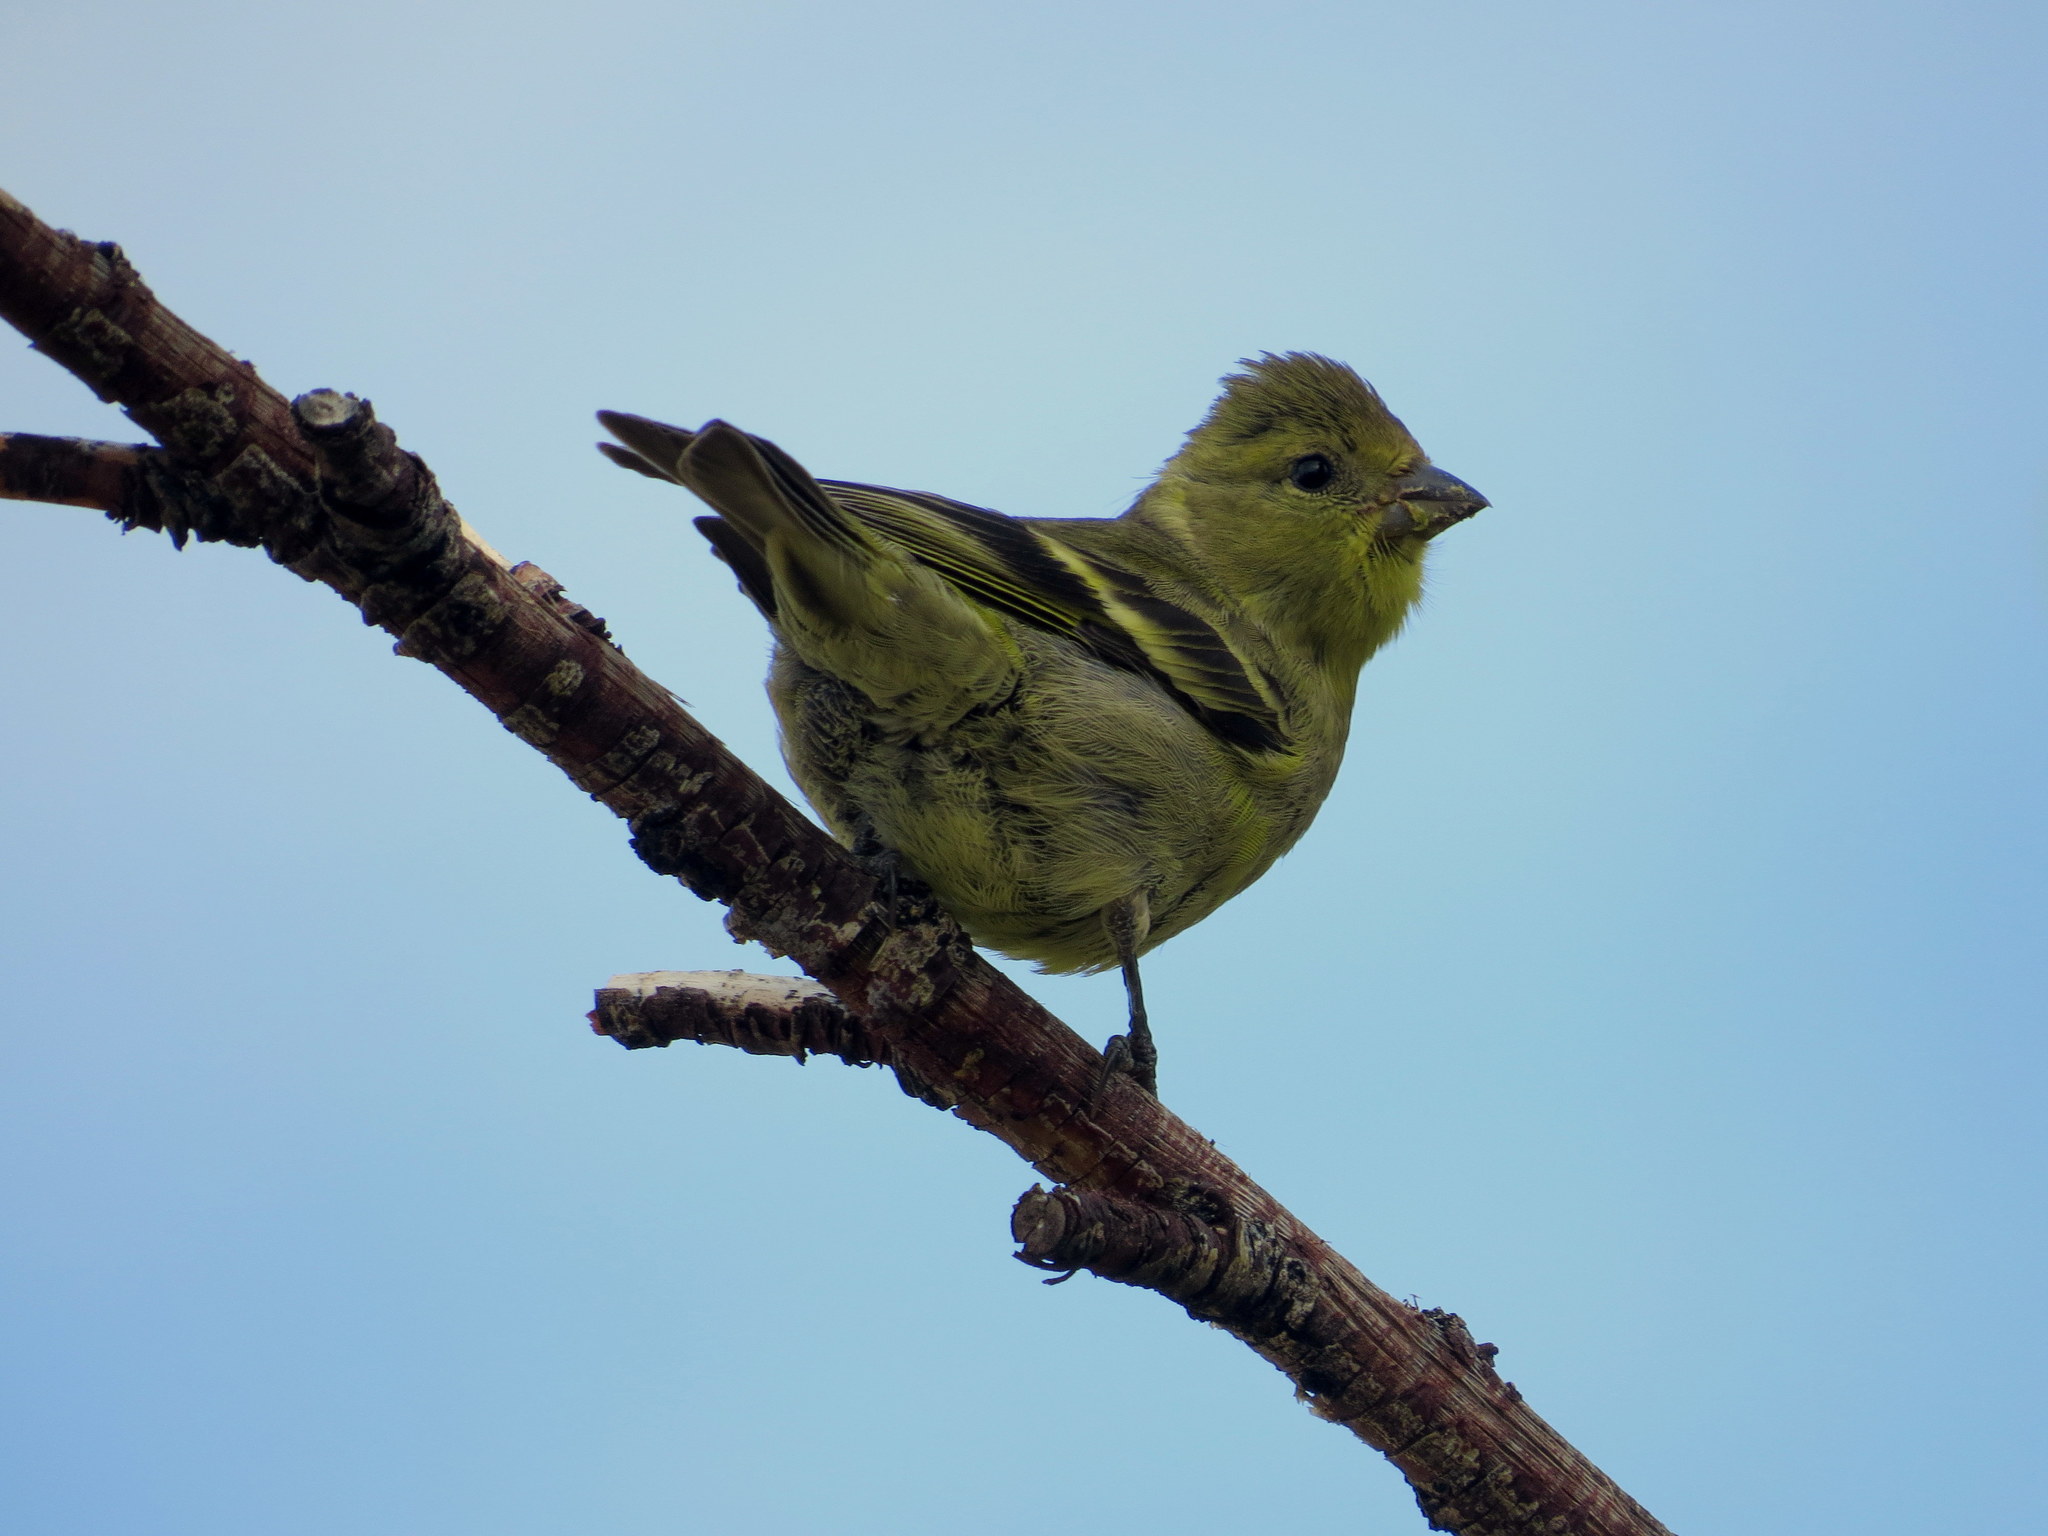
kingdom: Animalia
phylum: Chordata
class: Aves
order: Passeriformes
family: Fringillidae
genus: Spinus
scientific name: Spinus barbatus
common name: Black-chinned siskin
